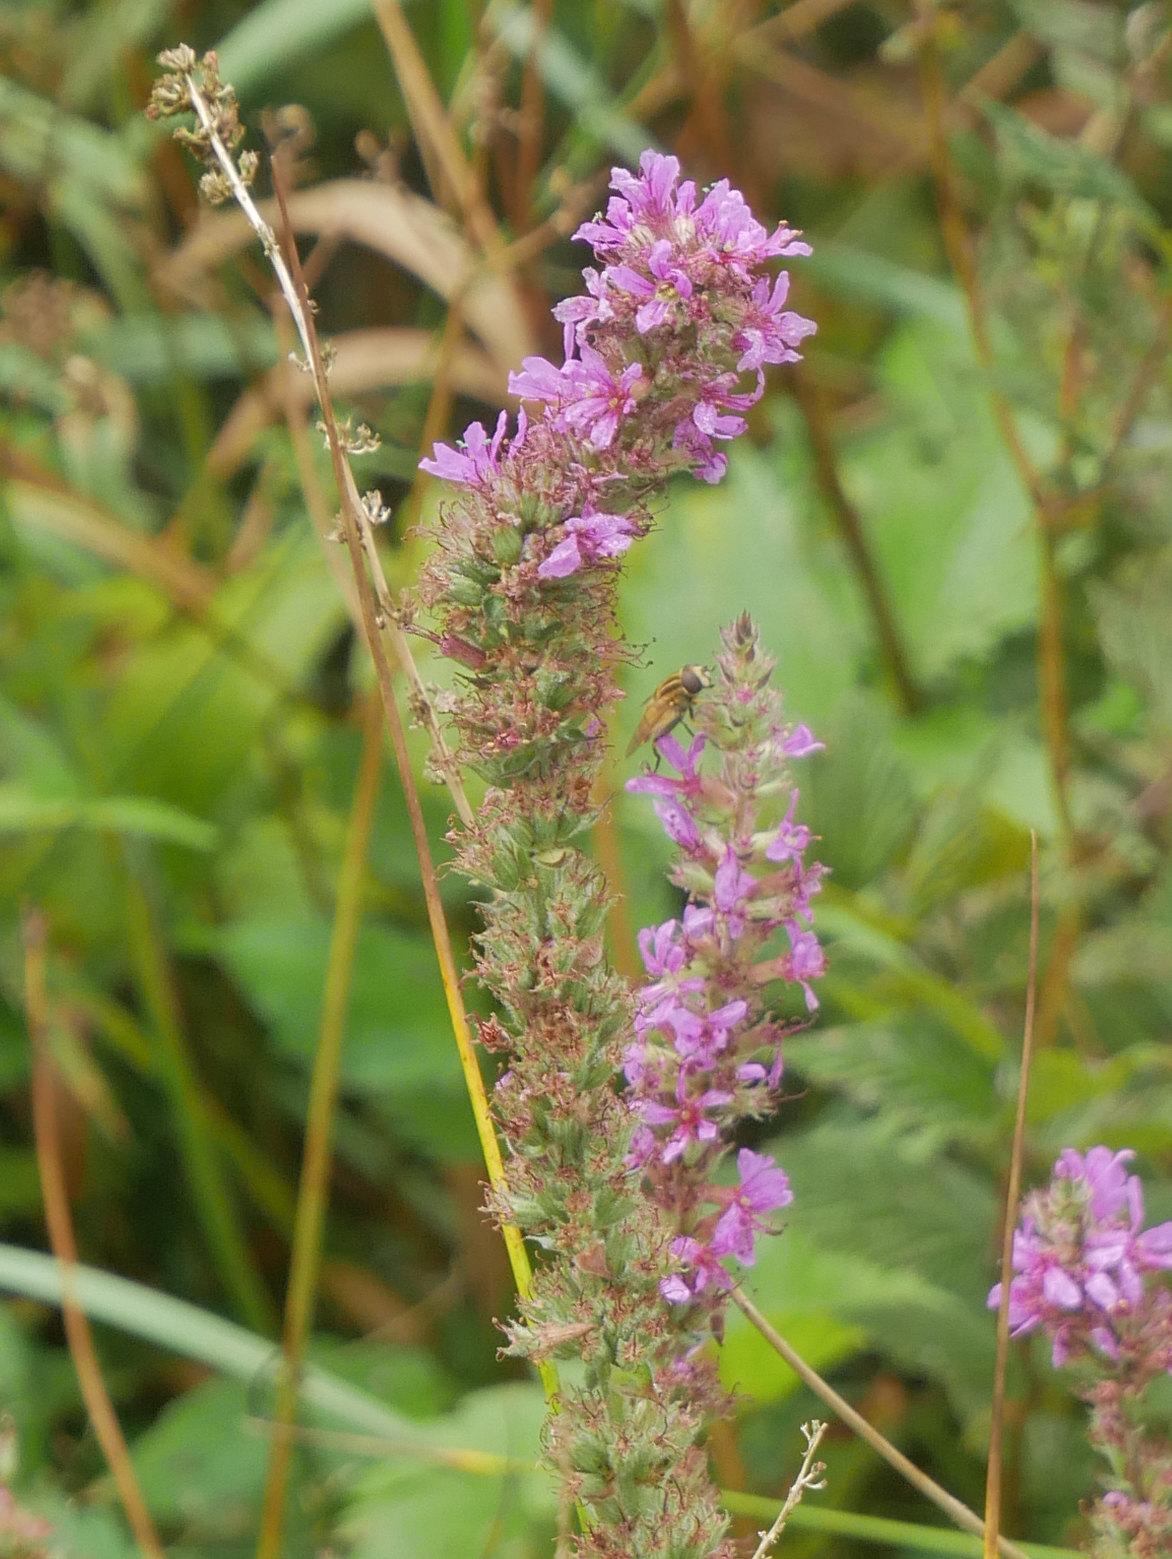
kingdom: Plantae
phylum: Tracheophyta
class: Magnoliopsida
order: Myrtales
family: Lythraceae
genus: Lythrum
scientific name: Lythrum salicaria
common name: Purple loosestrife
